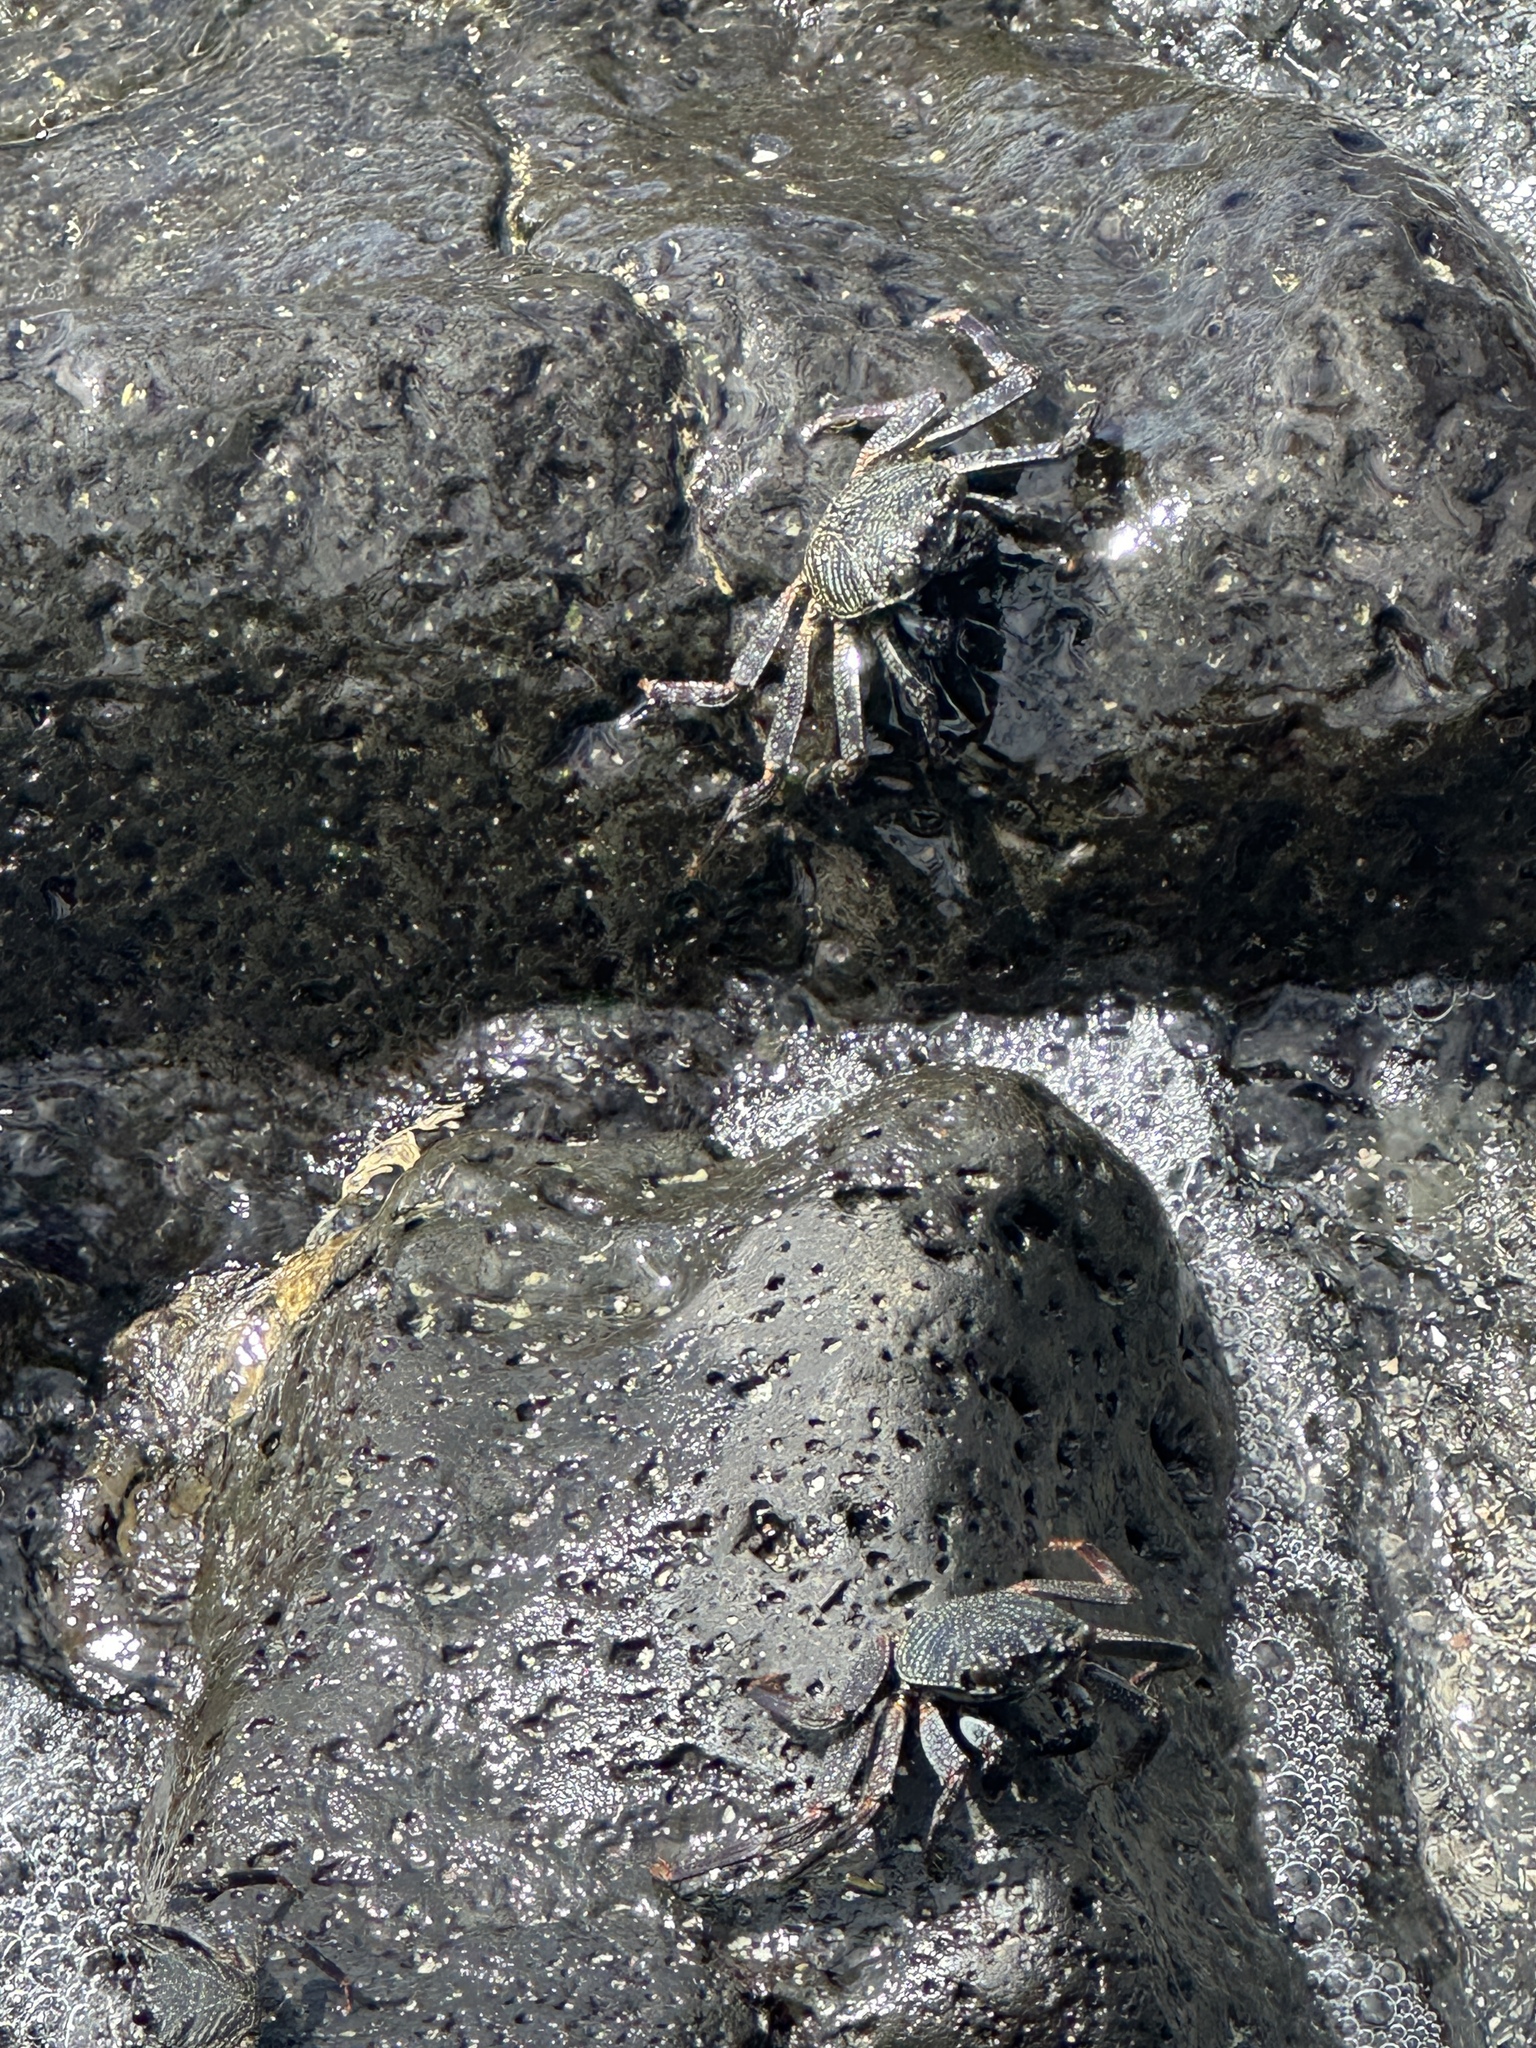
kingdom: Animalia
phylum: Arthropoda
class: Malacostraca
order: Decapoda
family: Grapsidae
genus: Grapsus
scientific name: Grapsus tenuicrustatus
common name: Natal lightfoot crab
